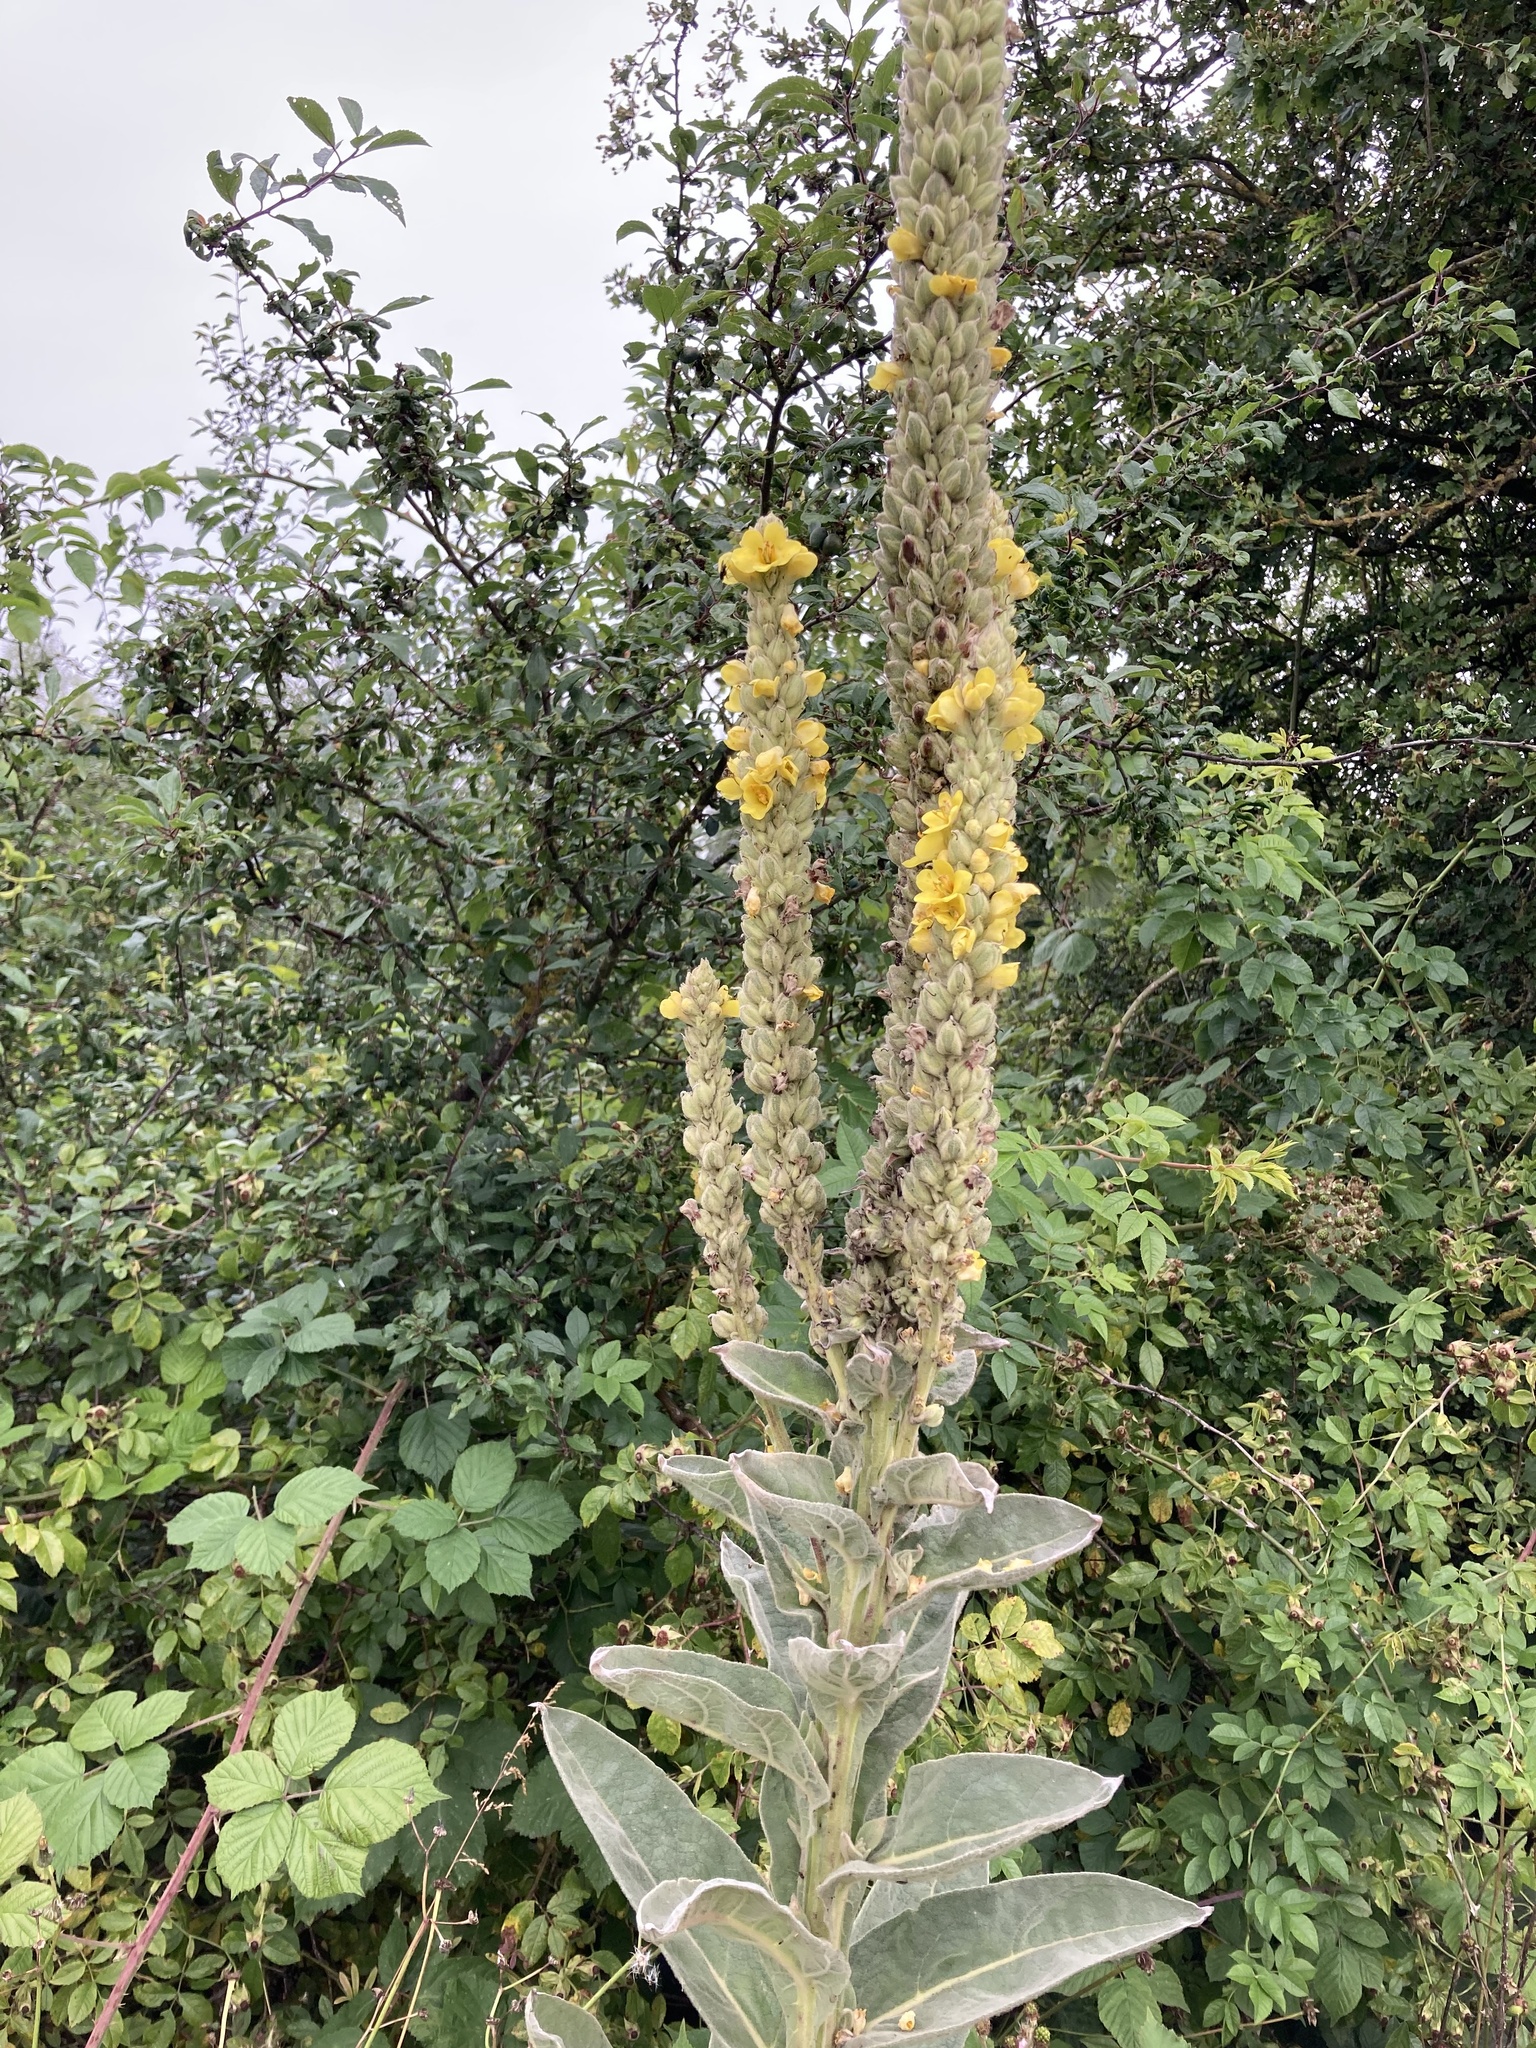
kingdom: Plantae
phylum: Tracheophyta
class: Magnoliopsida
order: Lamiales
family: Scrophulariaceae
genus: Verbascum
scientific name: Verbascum thapsus
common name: Common mullein
